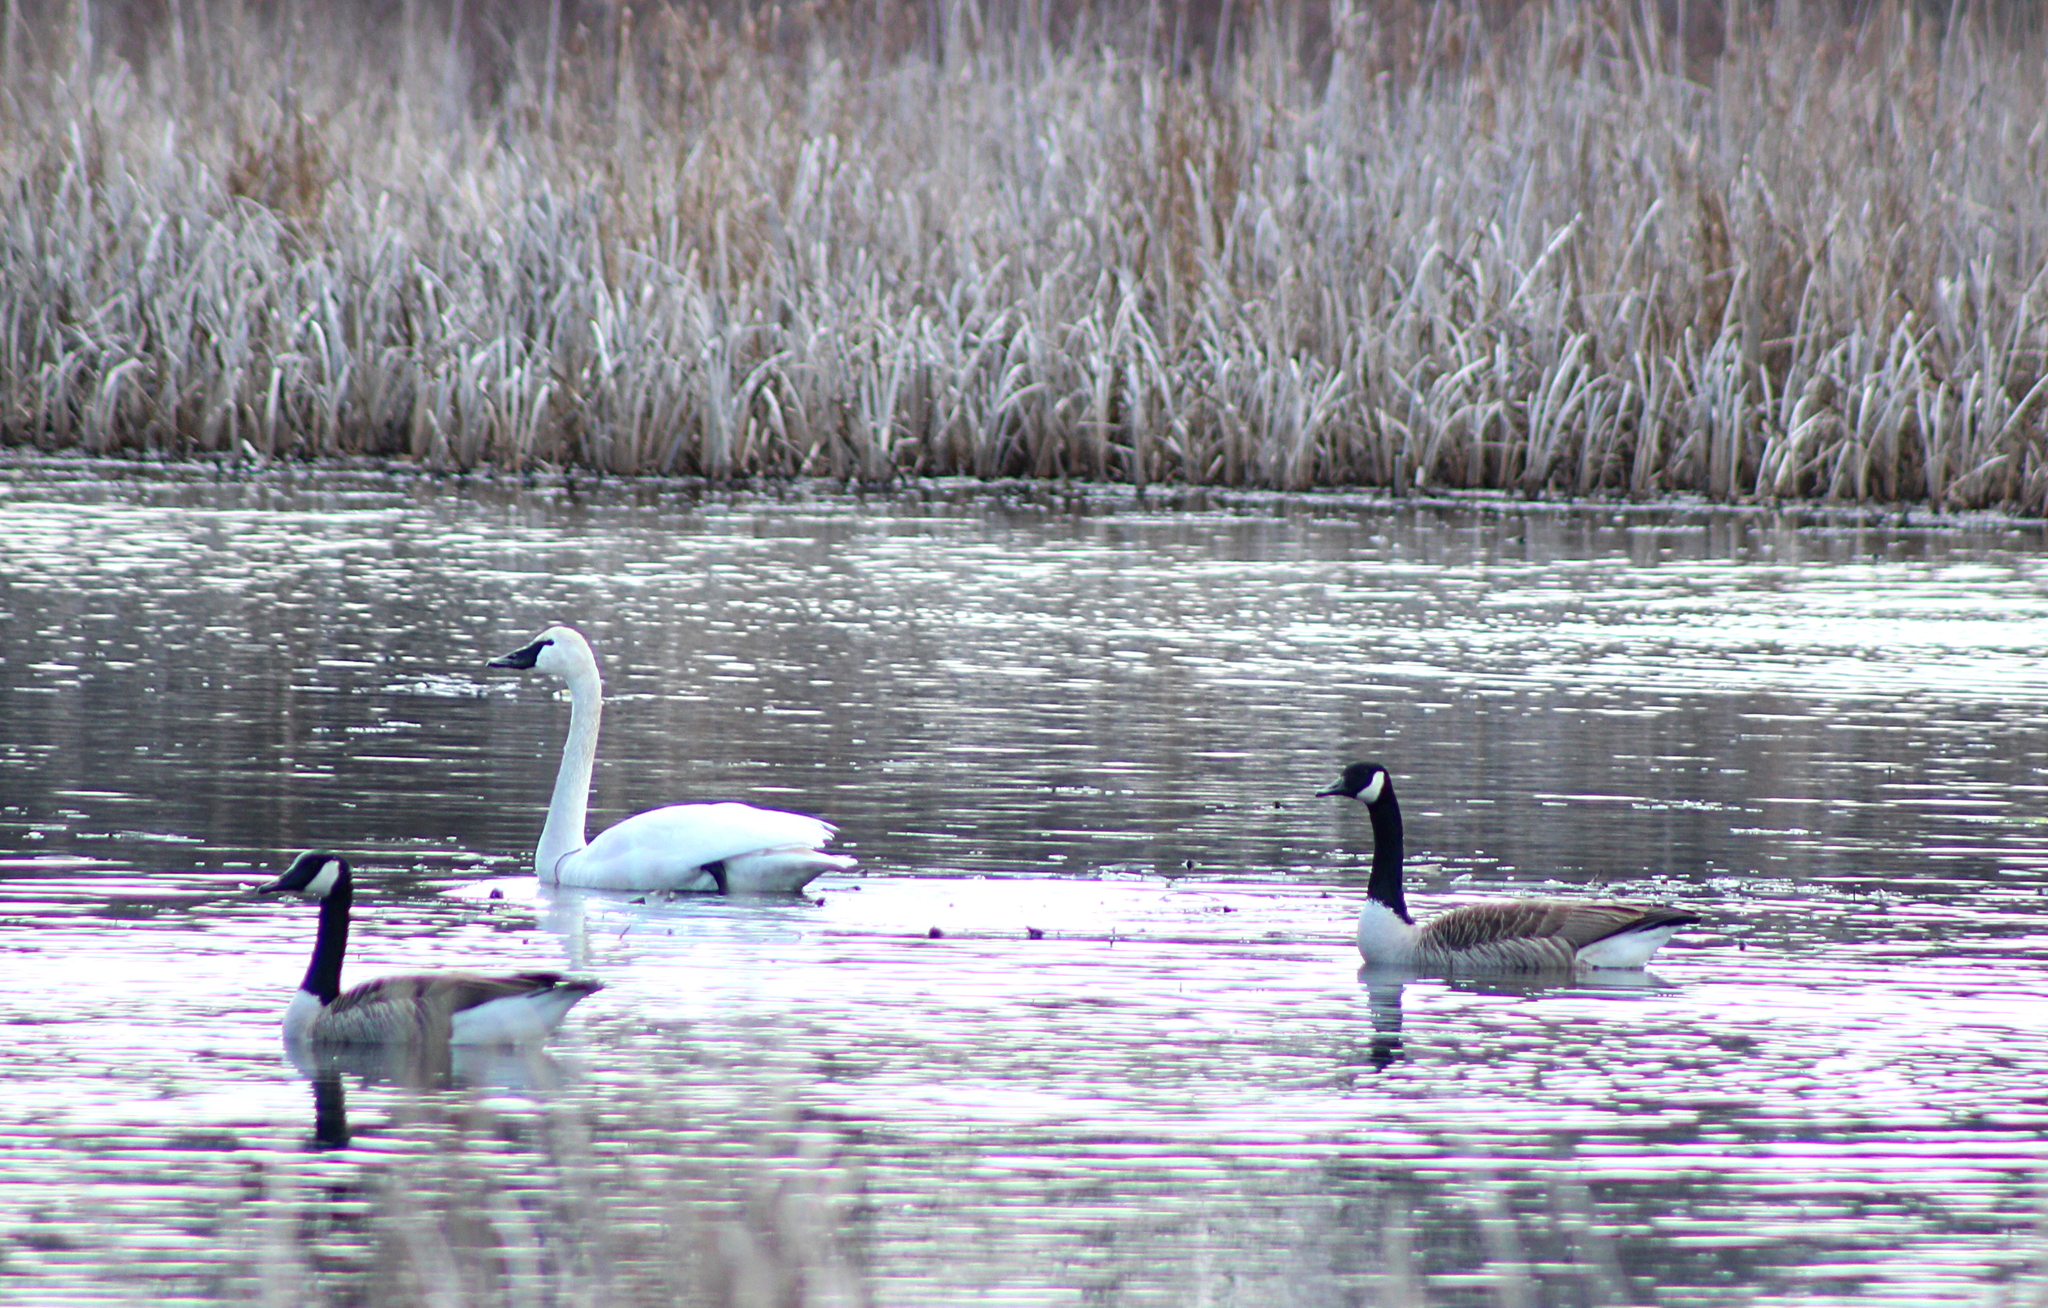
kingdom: Animalia
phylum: Chordata
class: Aves
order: Anseriformes
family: Anatidae
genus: Cygnus
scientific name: Cygnus columbianus
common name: Tundra swan
